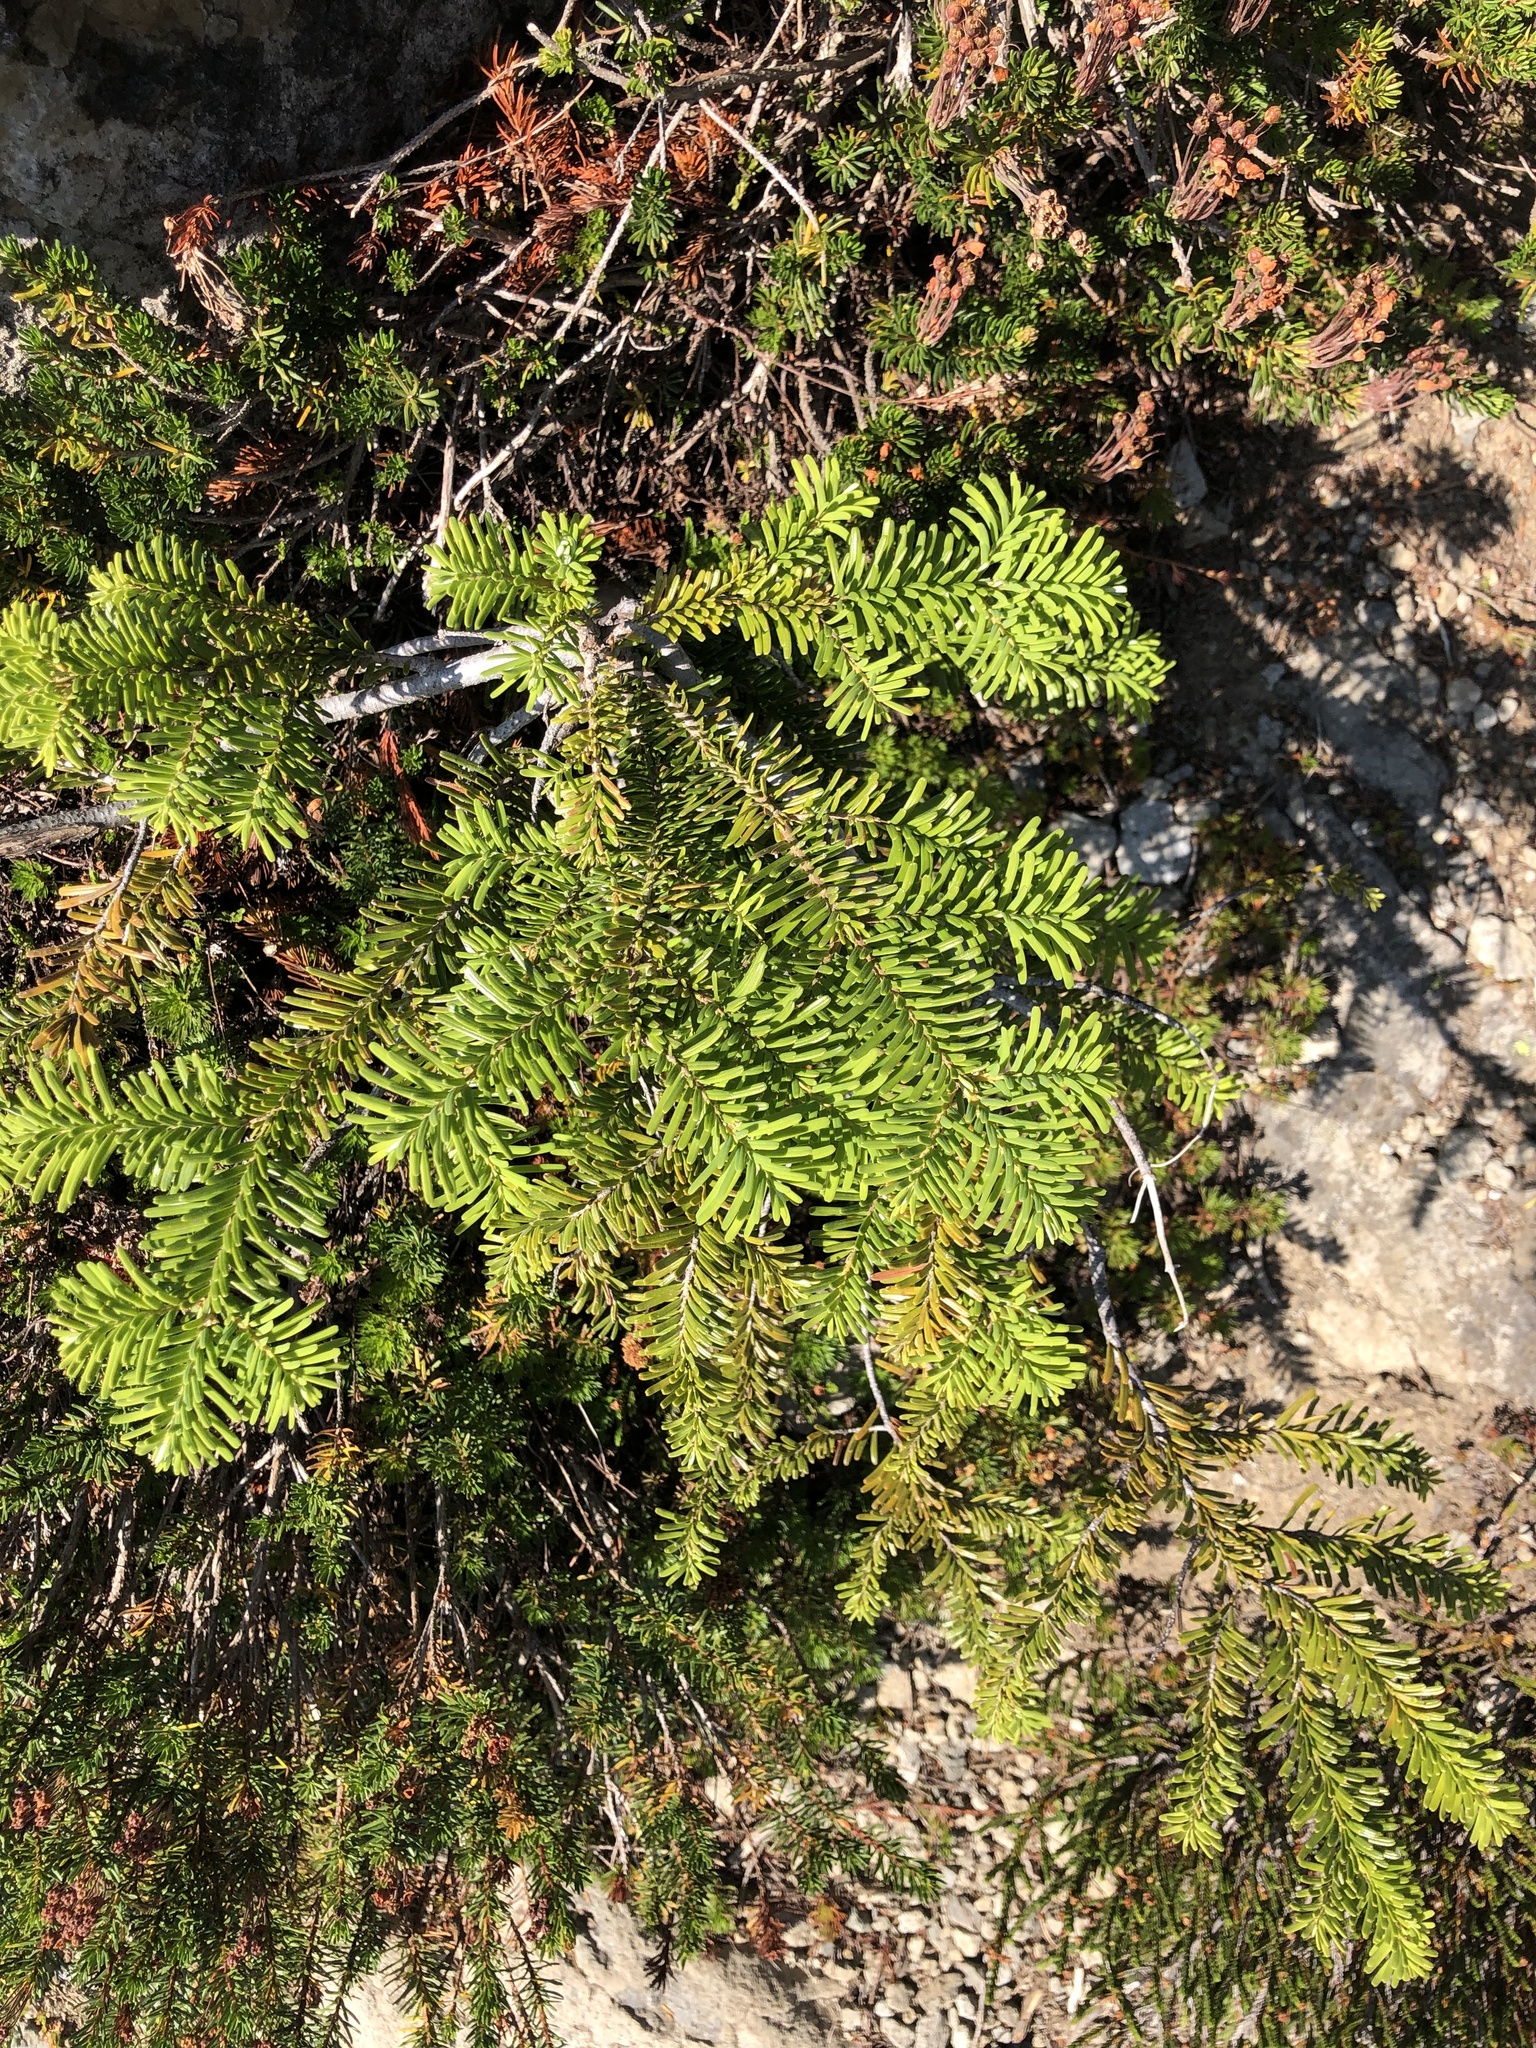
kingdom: Plantae
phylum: Tracheophyta
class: Pinopsida
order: Pinales
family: Pinaceae
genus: Abies
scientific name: Abies amabilis
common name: Pacific silver fir
